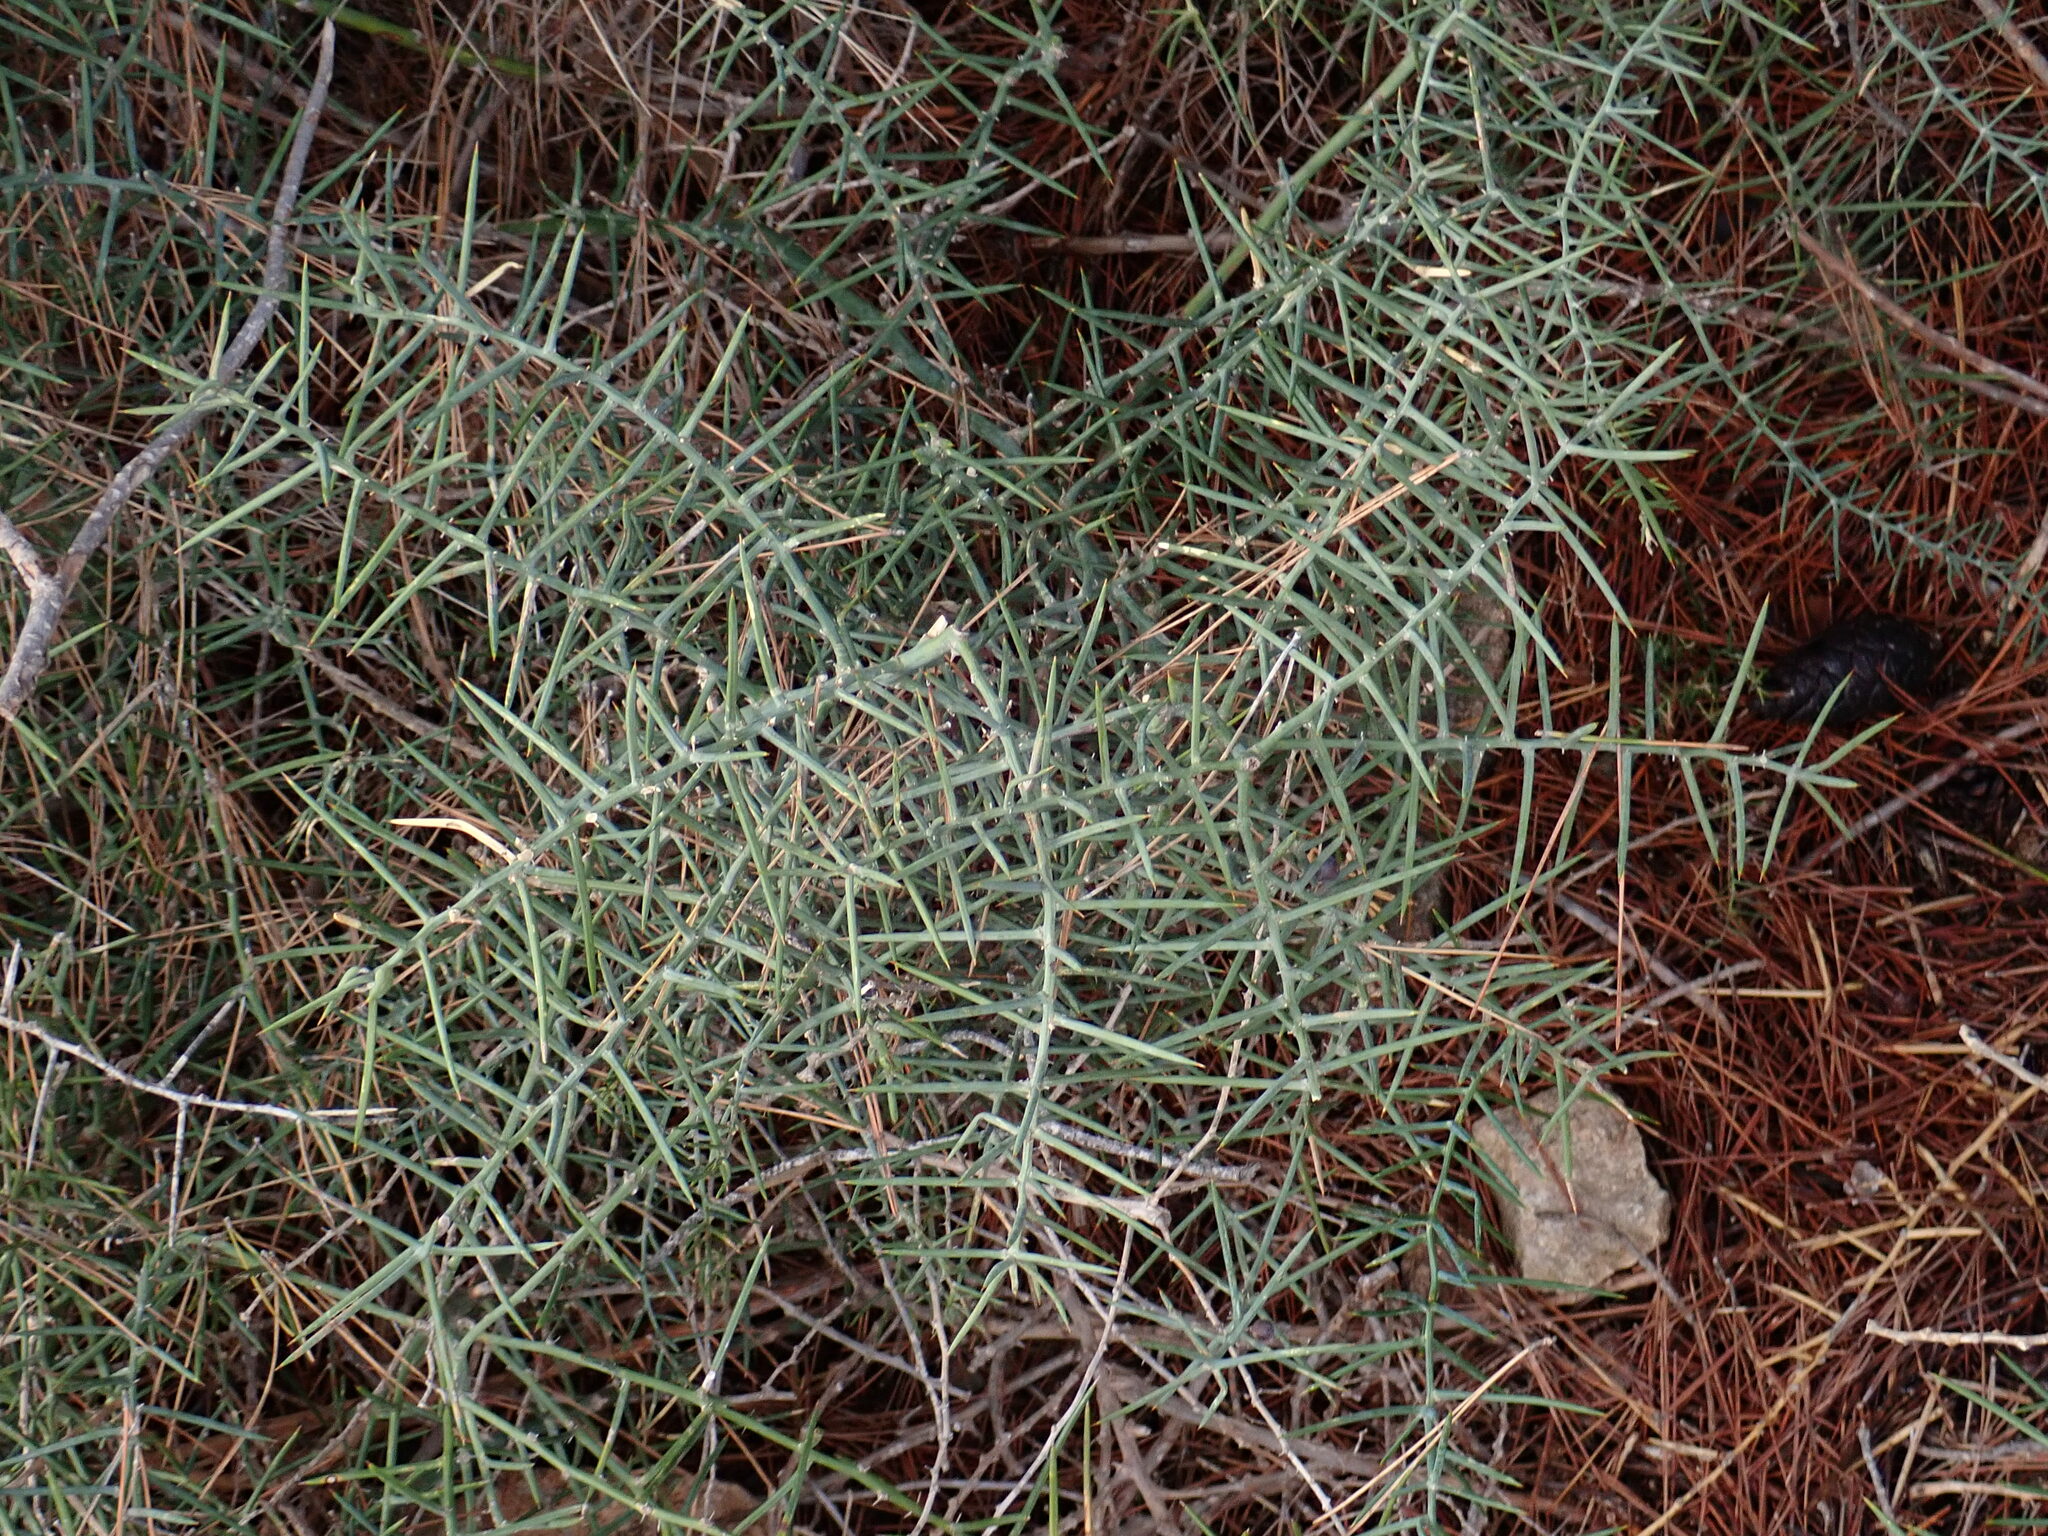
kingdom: Plantae
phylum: Tracheophyta
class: Liliopsida
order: Asparagales
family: Asparagaceae
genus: Asparagus
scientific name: Asparagus horridus
